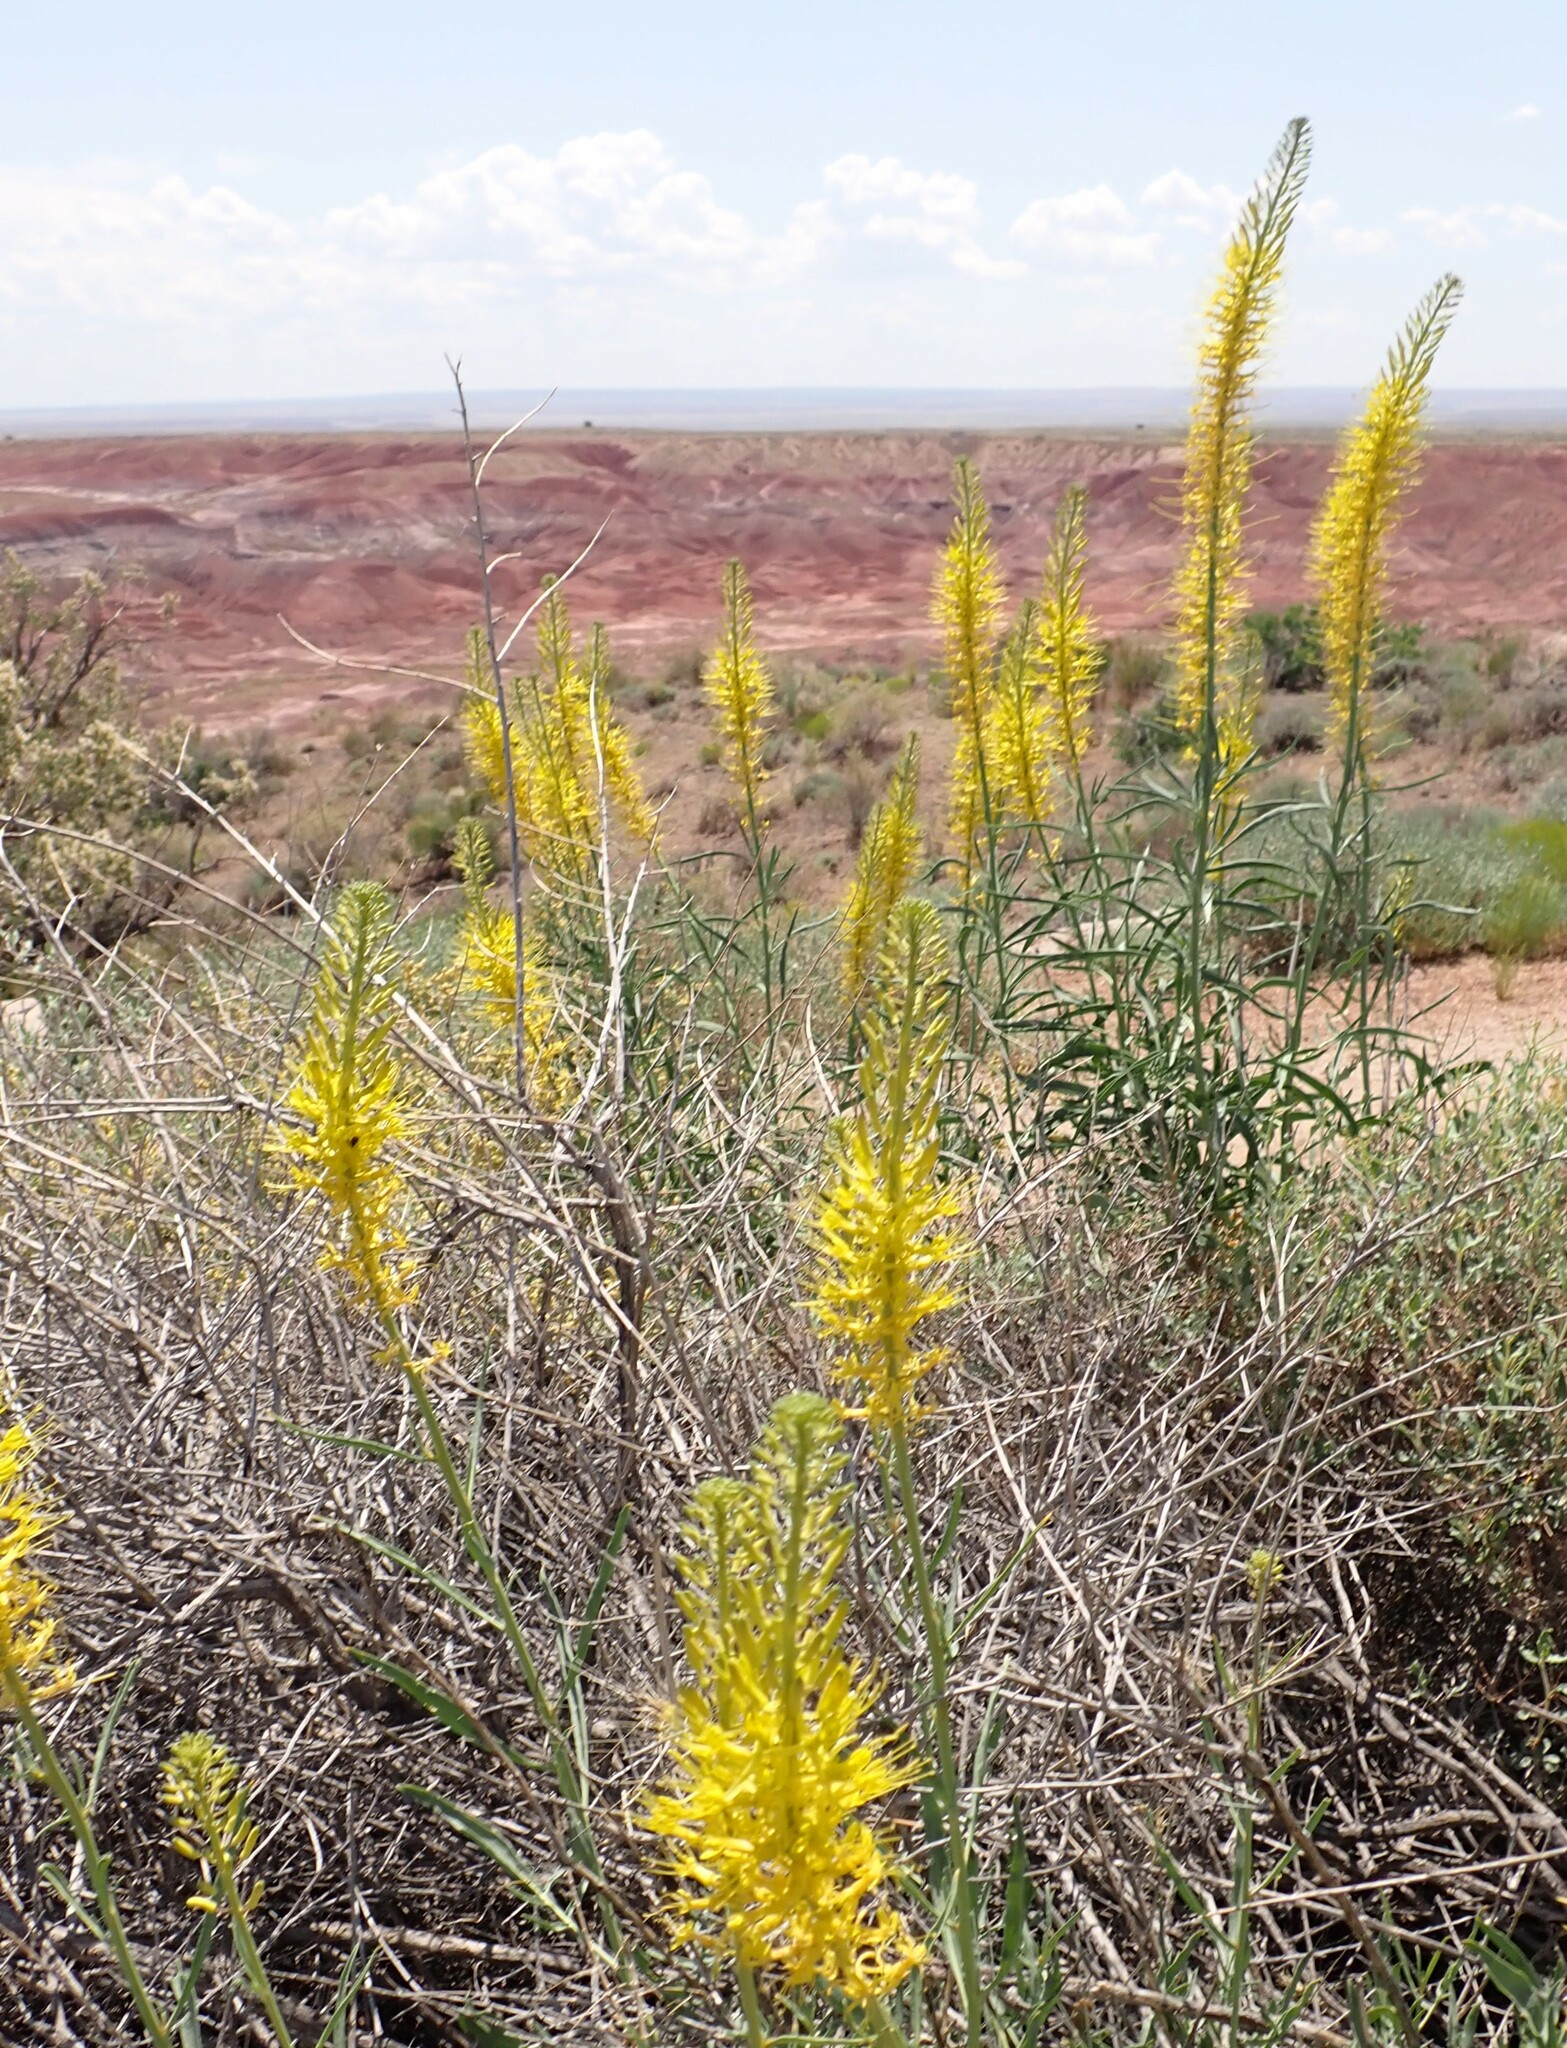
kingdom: Plantae
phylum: Tracheophyta
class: Magnoliopsida
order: Brassicales
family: Brassicaceae
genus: Stanleya
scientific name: Stanleya pinnata
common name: Prince's-plume
